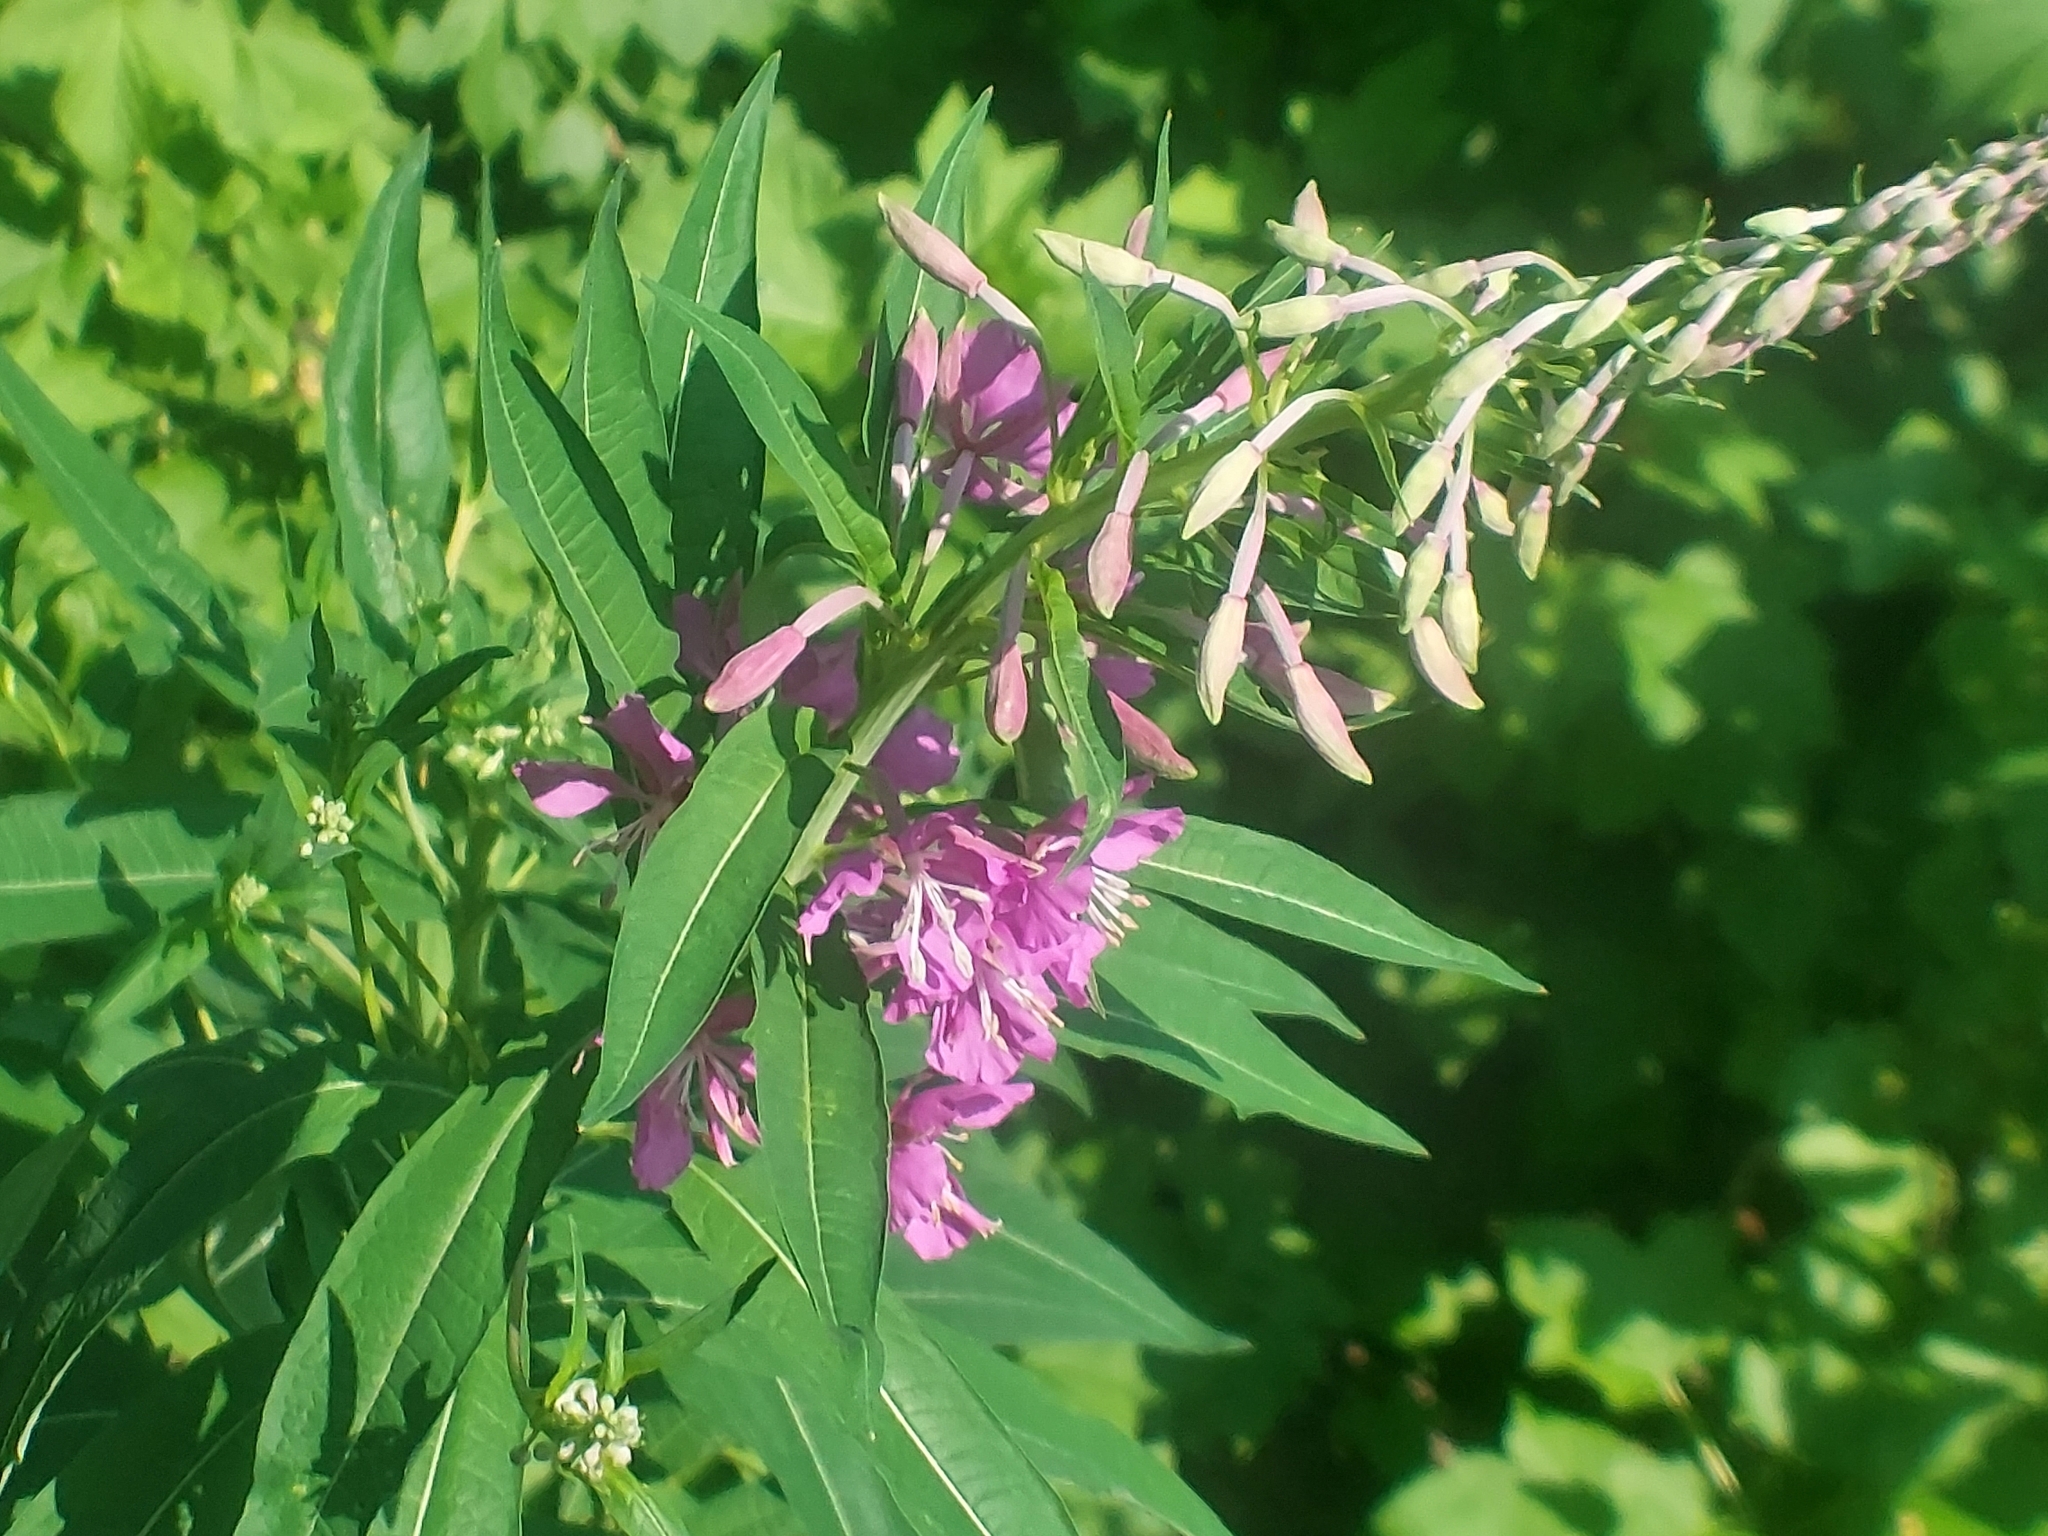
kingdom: Plantae
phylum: Tracheophyta
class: Magnoliopsida
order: Myrtales
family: Onagraceae
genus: Chamaenerion
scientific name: Chamaenerion angustifolium
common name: Fireweed
